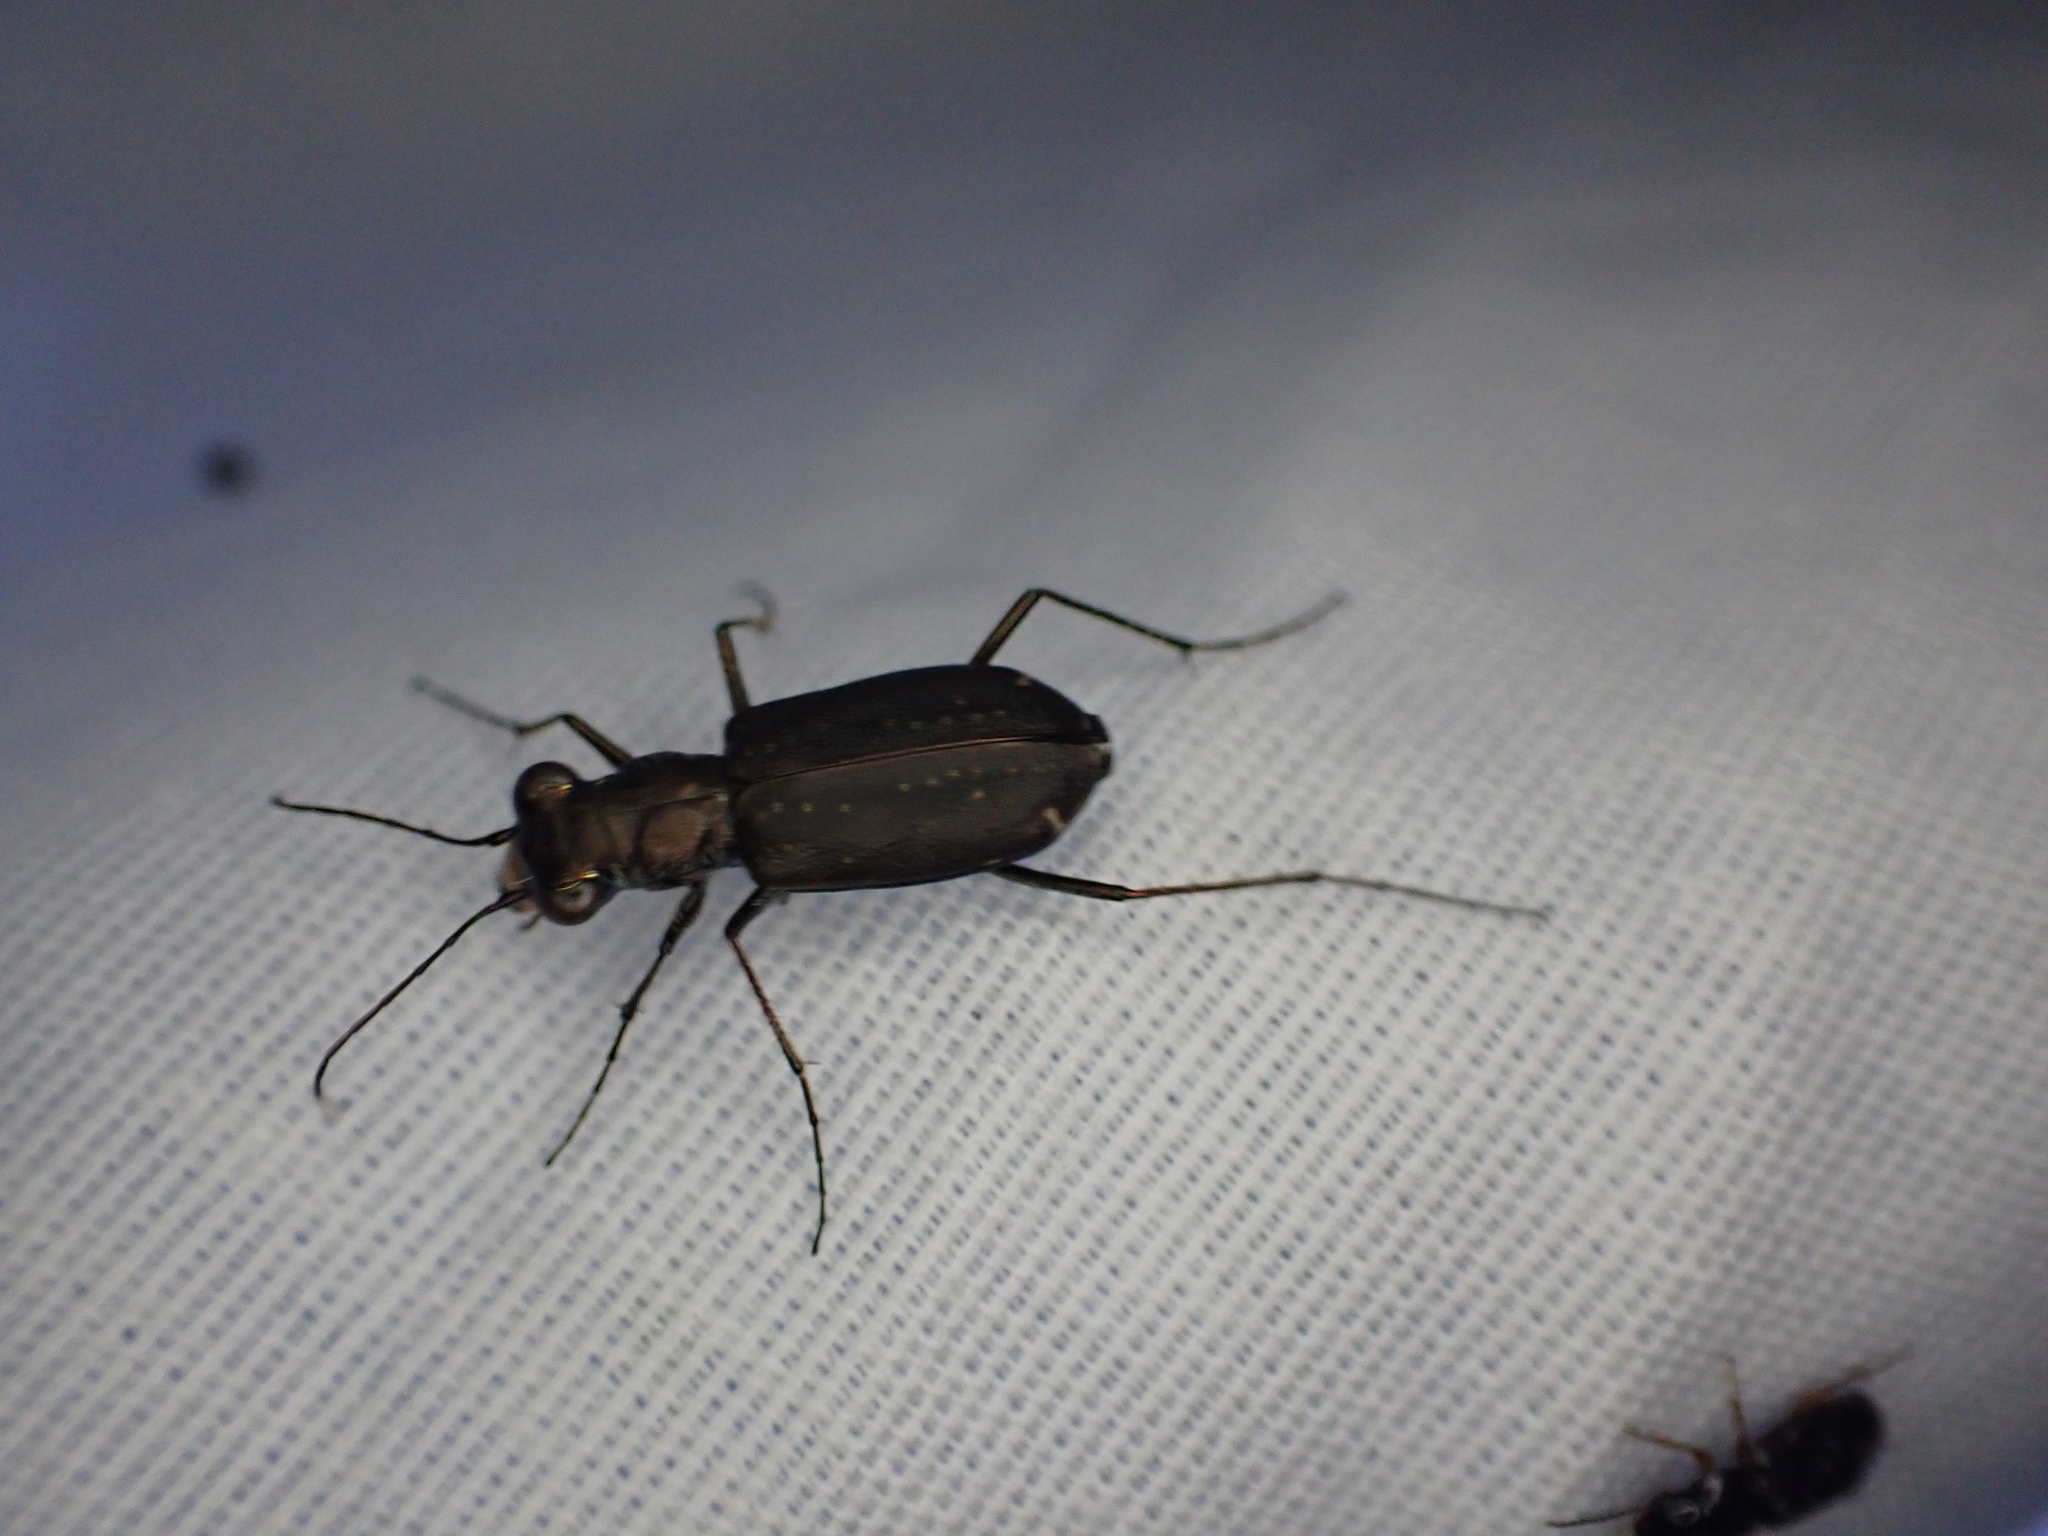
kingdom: Animalia
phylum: Arthropoda
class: Insecta
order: Coleoptera
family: Carabidae
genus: Cicindela
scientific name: Cicindela punctulata
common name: Punctured tiger beetle
